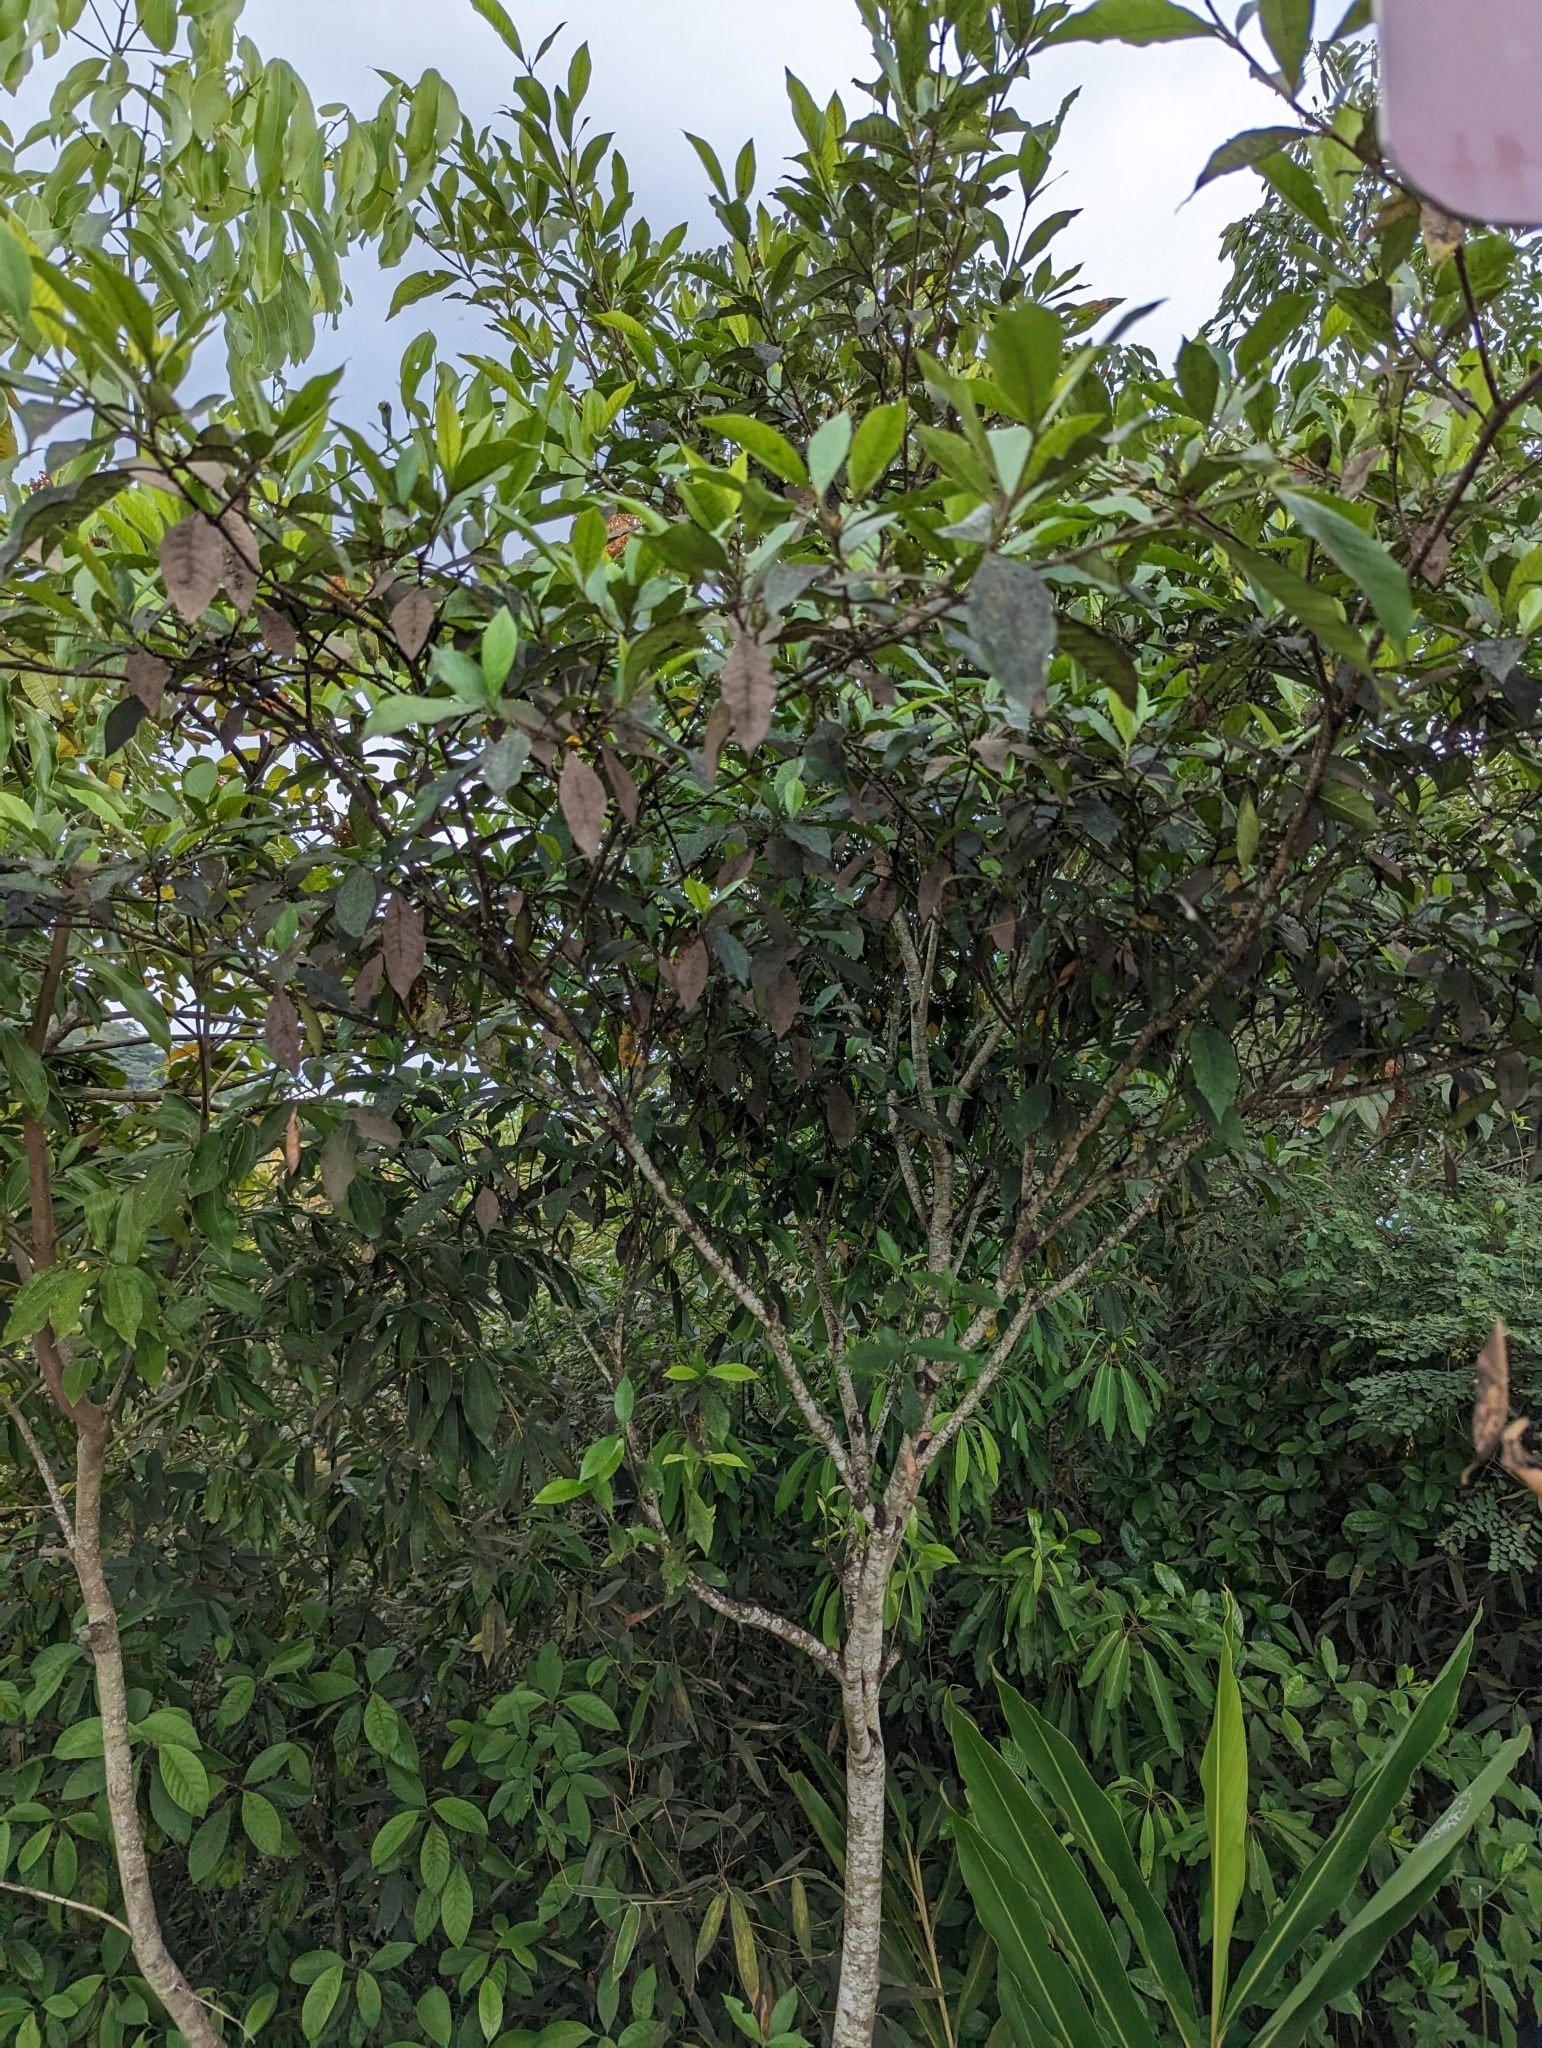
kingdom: Plantae
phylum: Tracheophyta
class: Magnoliopsida
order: Gentianales
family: Rubiaceae
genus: Gardenia
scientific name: Gardenia jasminoides
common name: Cape-jasmine
